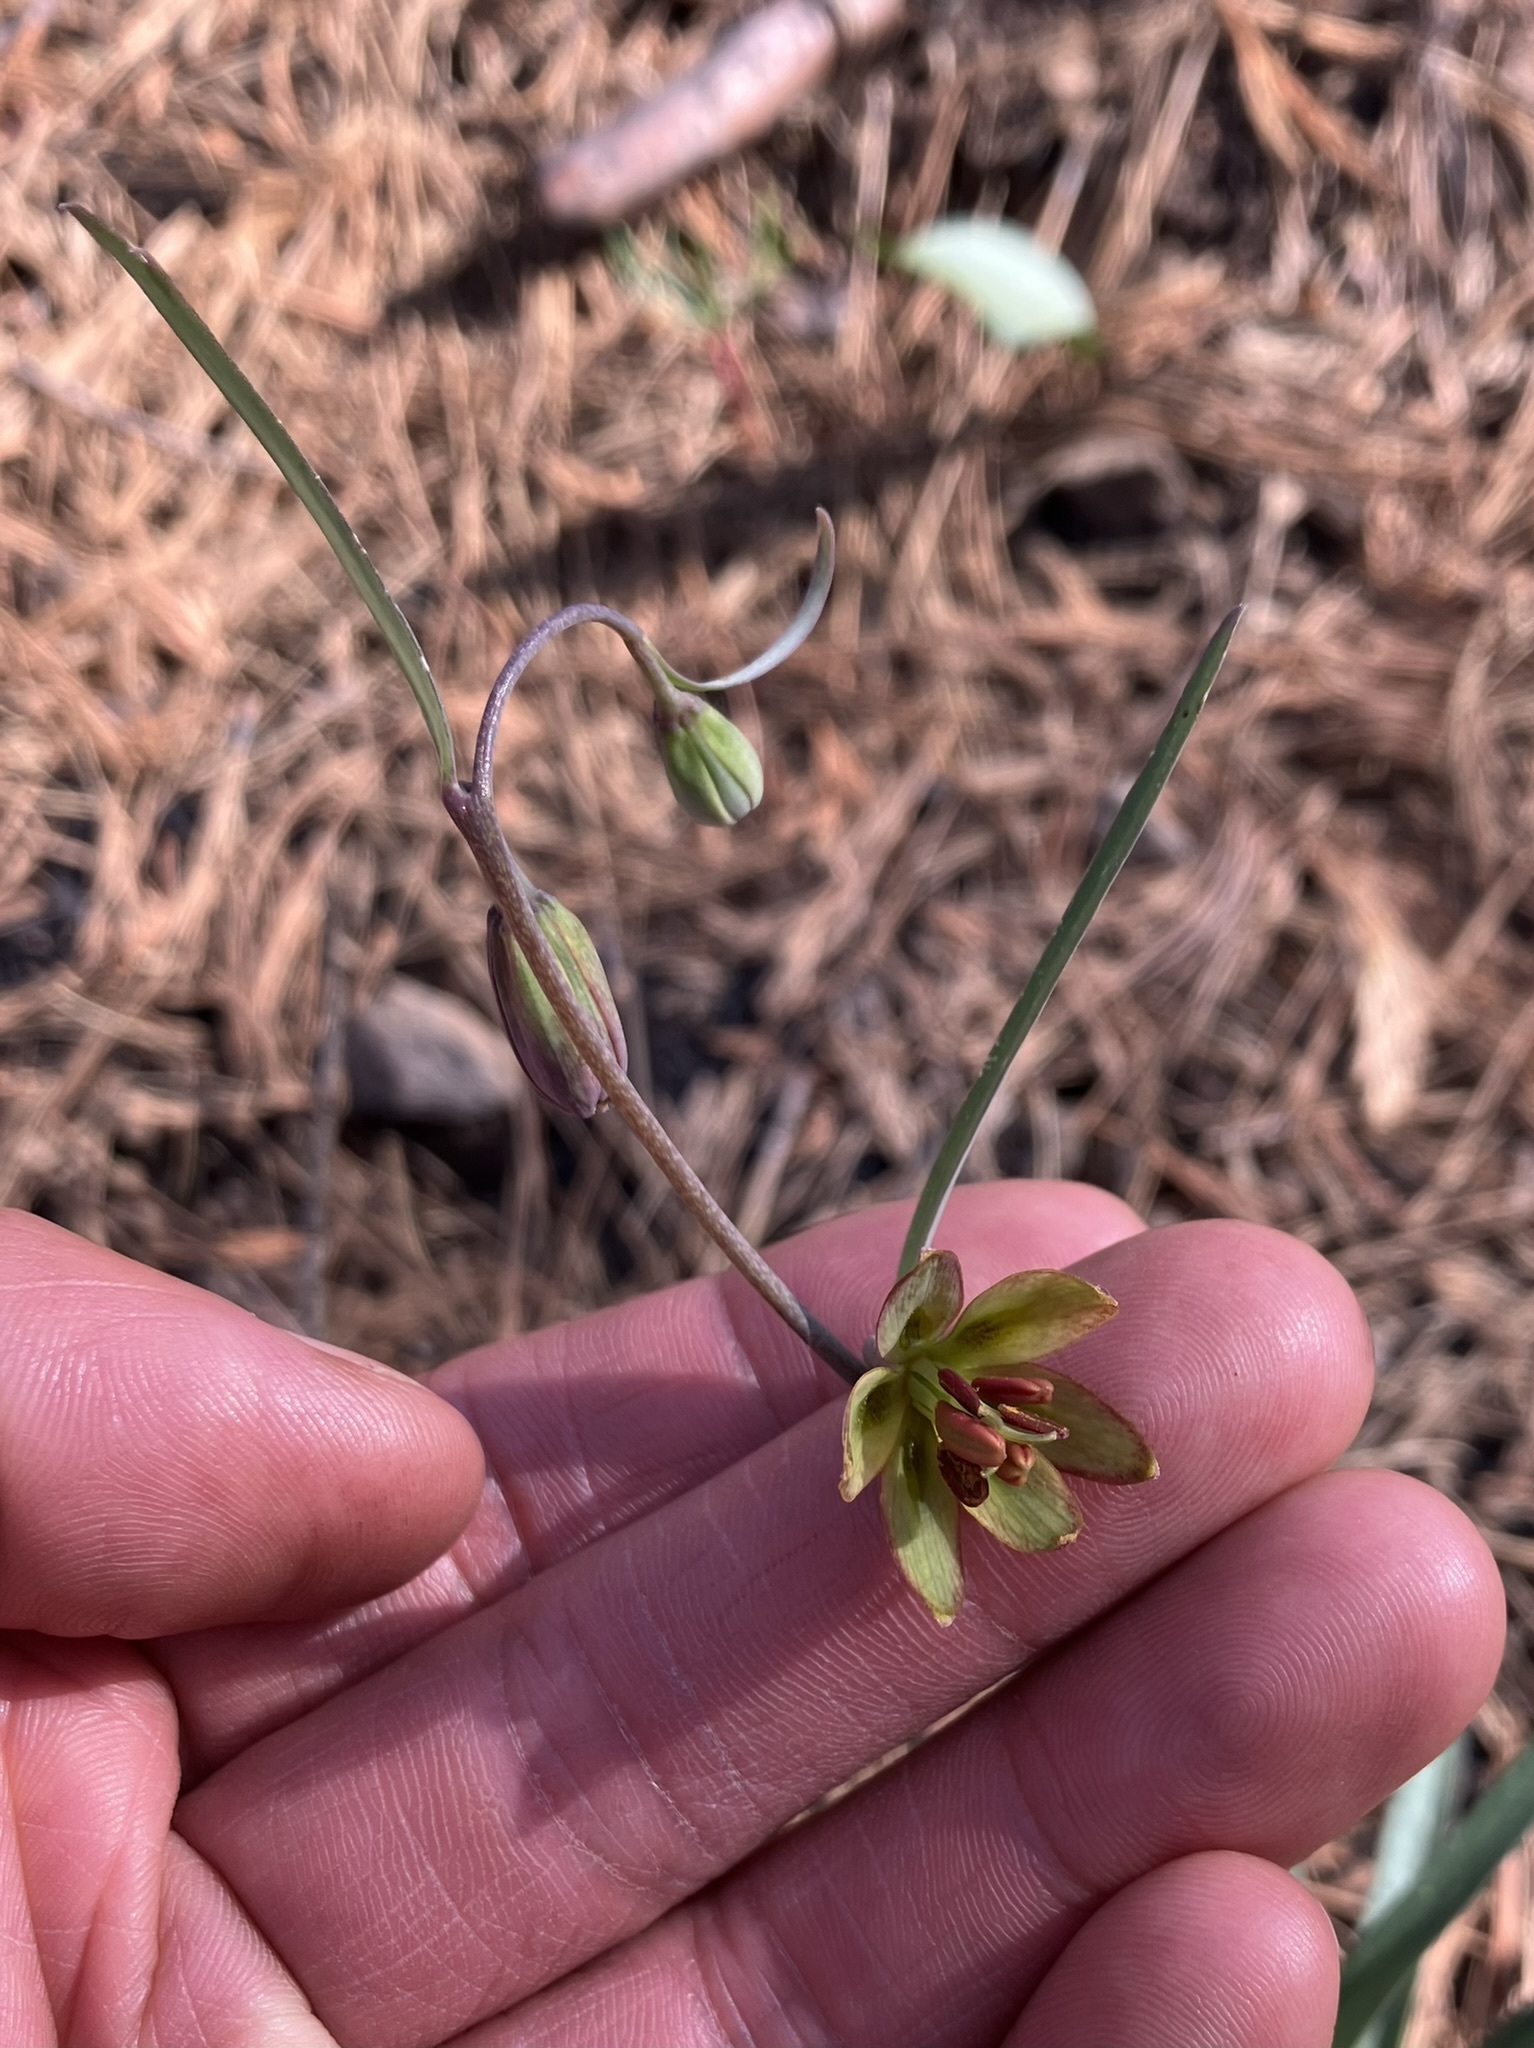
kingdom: Plantae
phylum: Tracheophyta
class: Liliopsida
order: Liliales
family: Liliaceae
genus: Fritillaria
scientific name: Fritillaria micrantha
